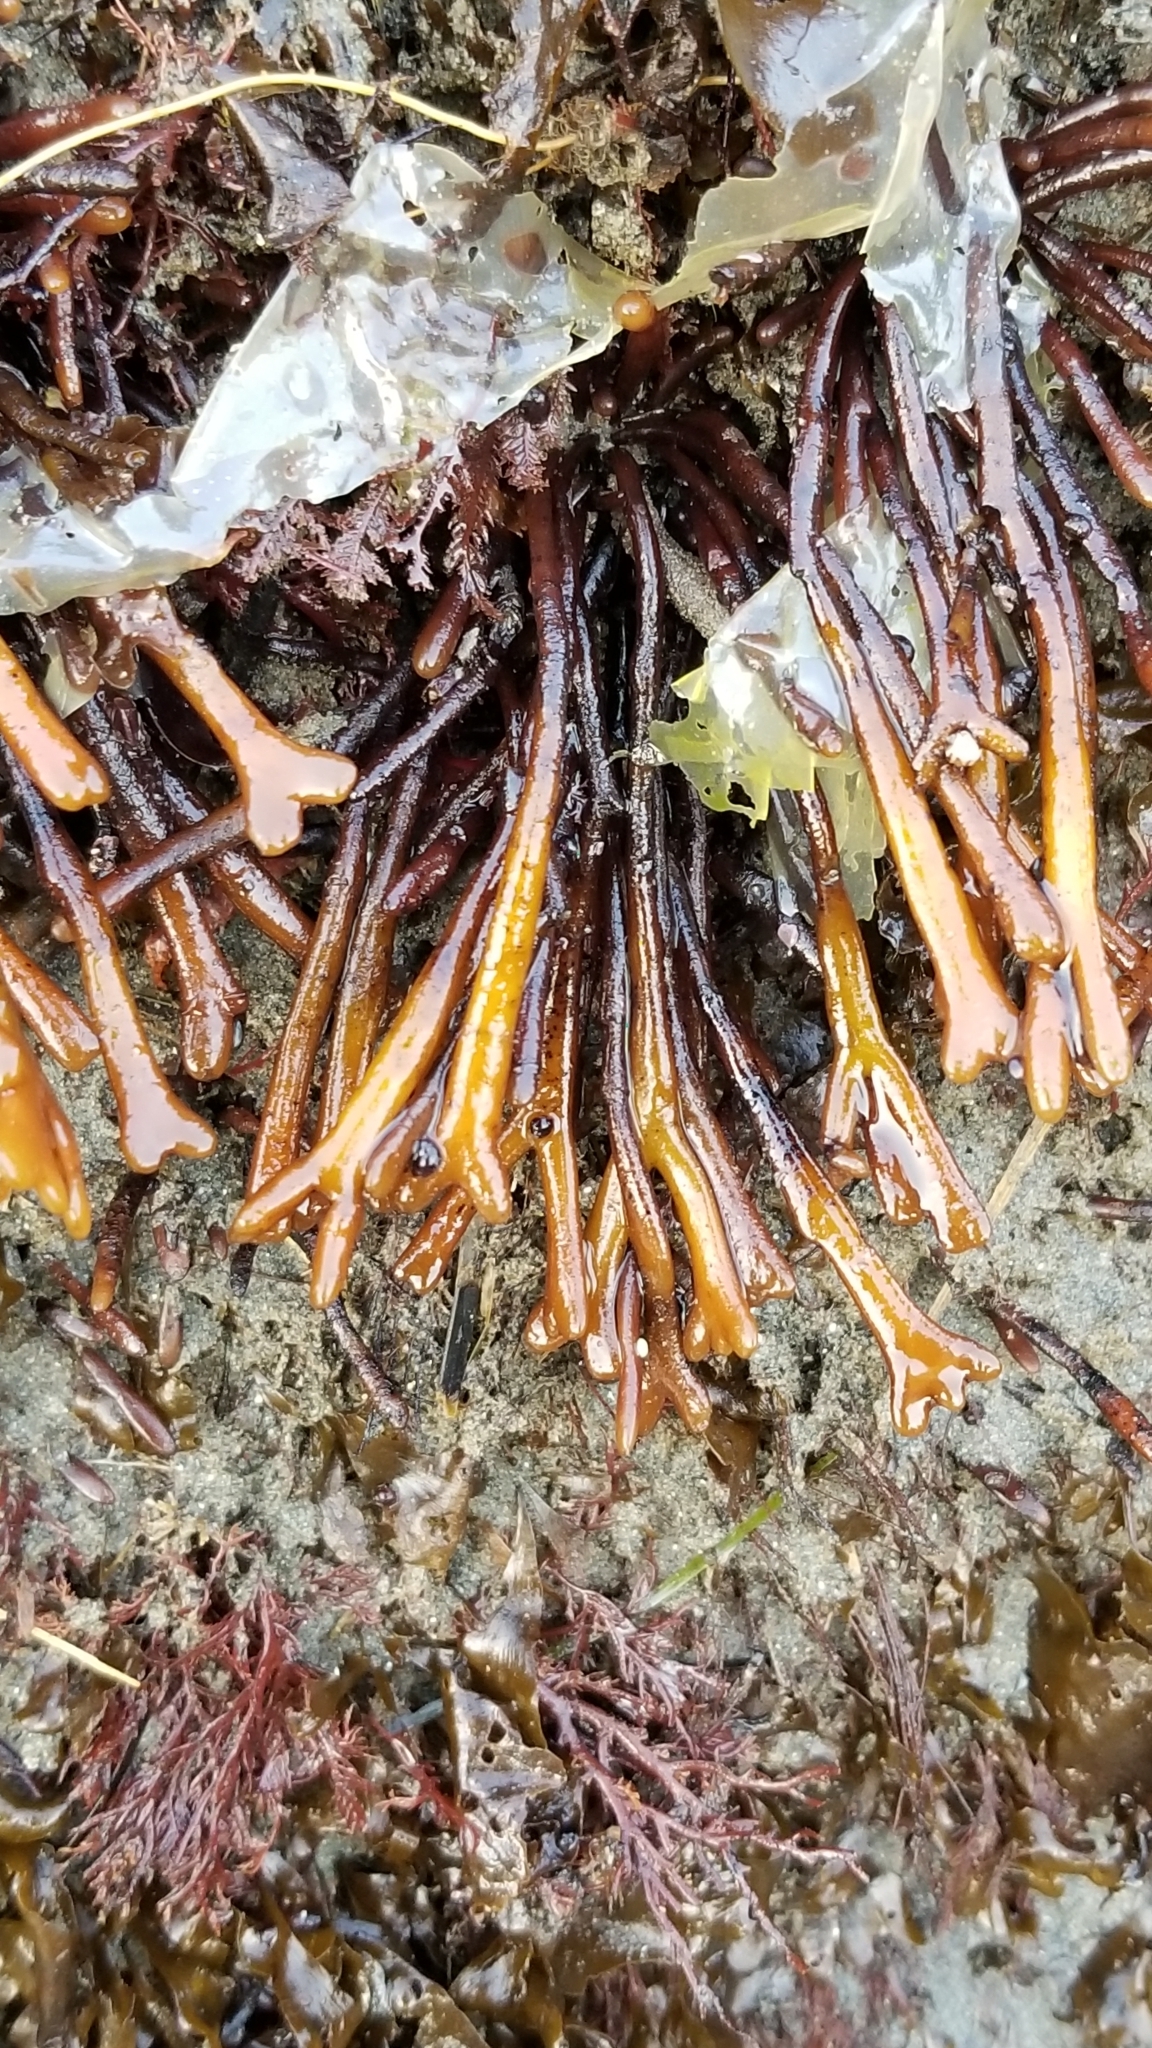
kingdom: Plantae
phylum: Rhodophyta
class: Florideophyceae
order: Gigartinales
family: Phyllophoraceae
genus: Ahnfeltiopsis
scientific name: Ahnfeltiopsis linearis
